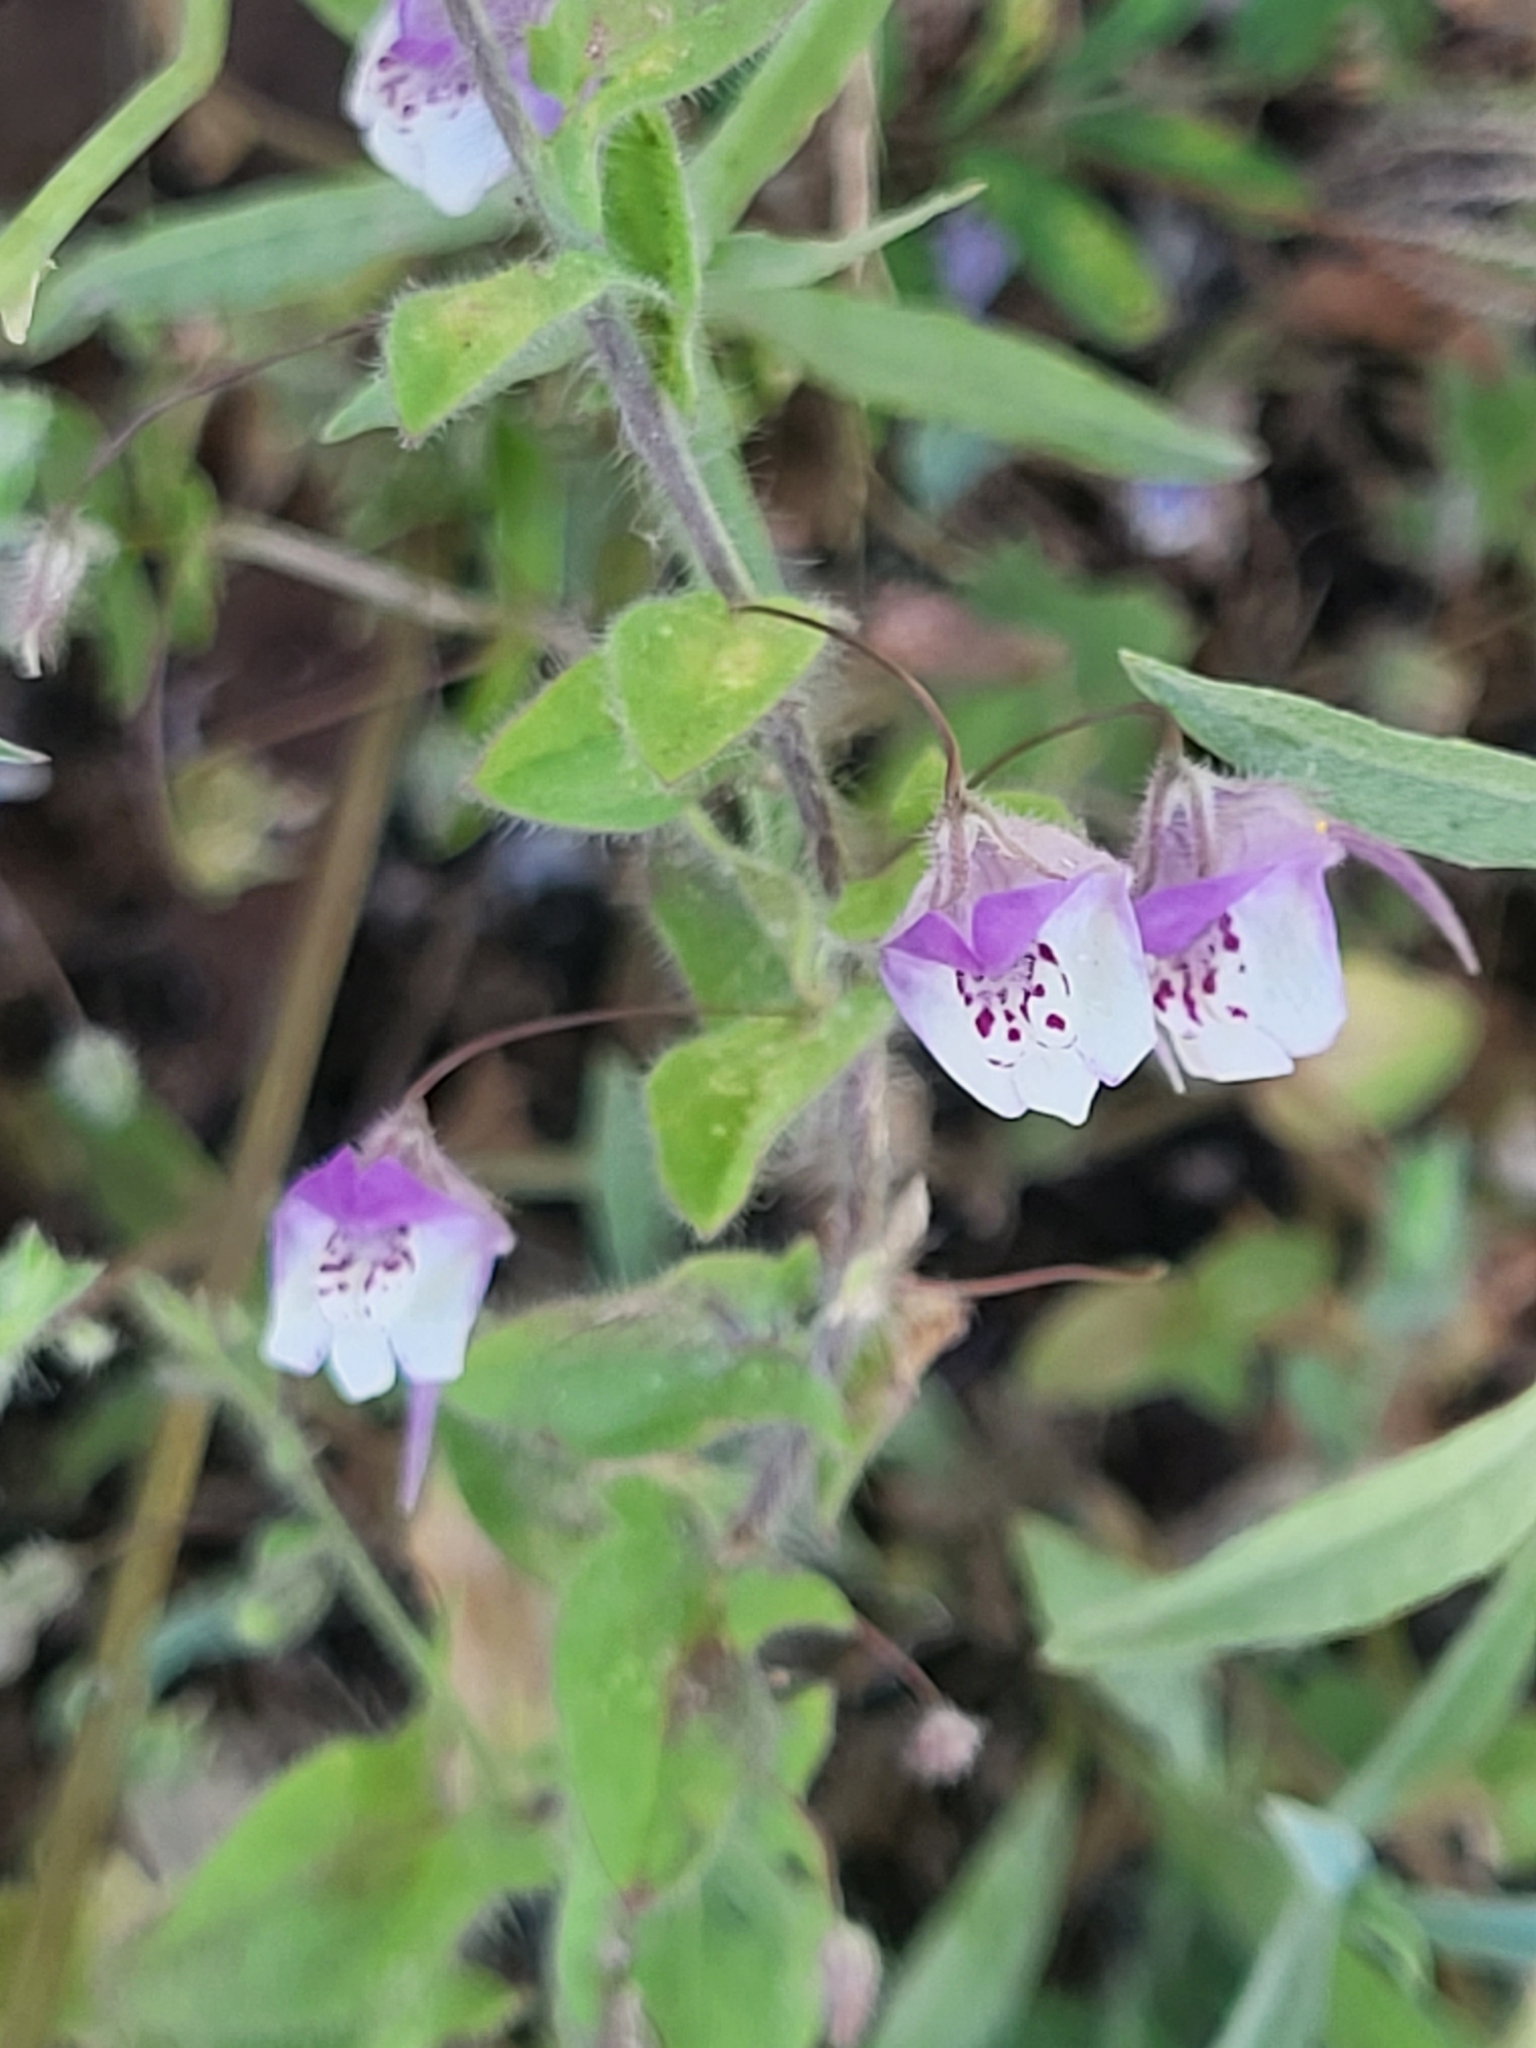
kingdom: Plantae
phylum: Tracheophyta
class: Magnoliopsida
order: Lamiales
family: Plantaginaceae
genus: Kickxia
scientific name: Kickxia commutata
